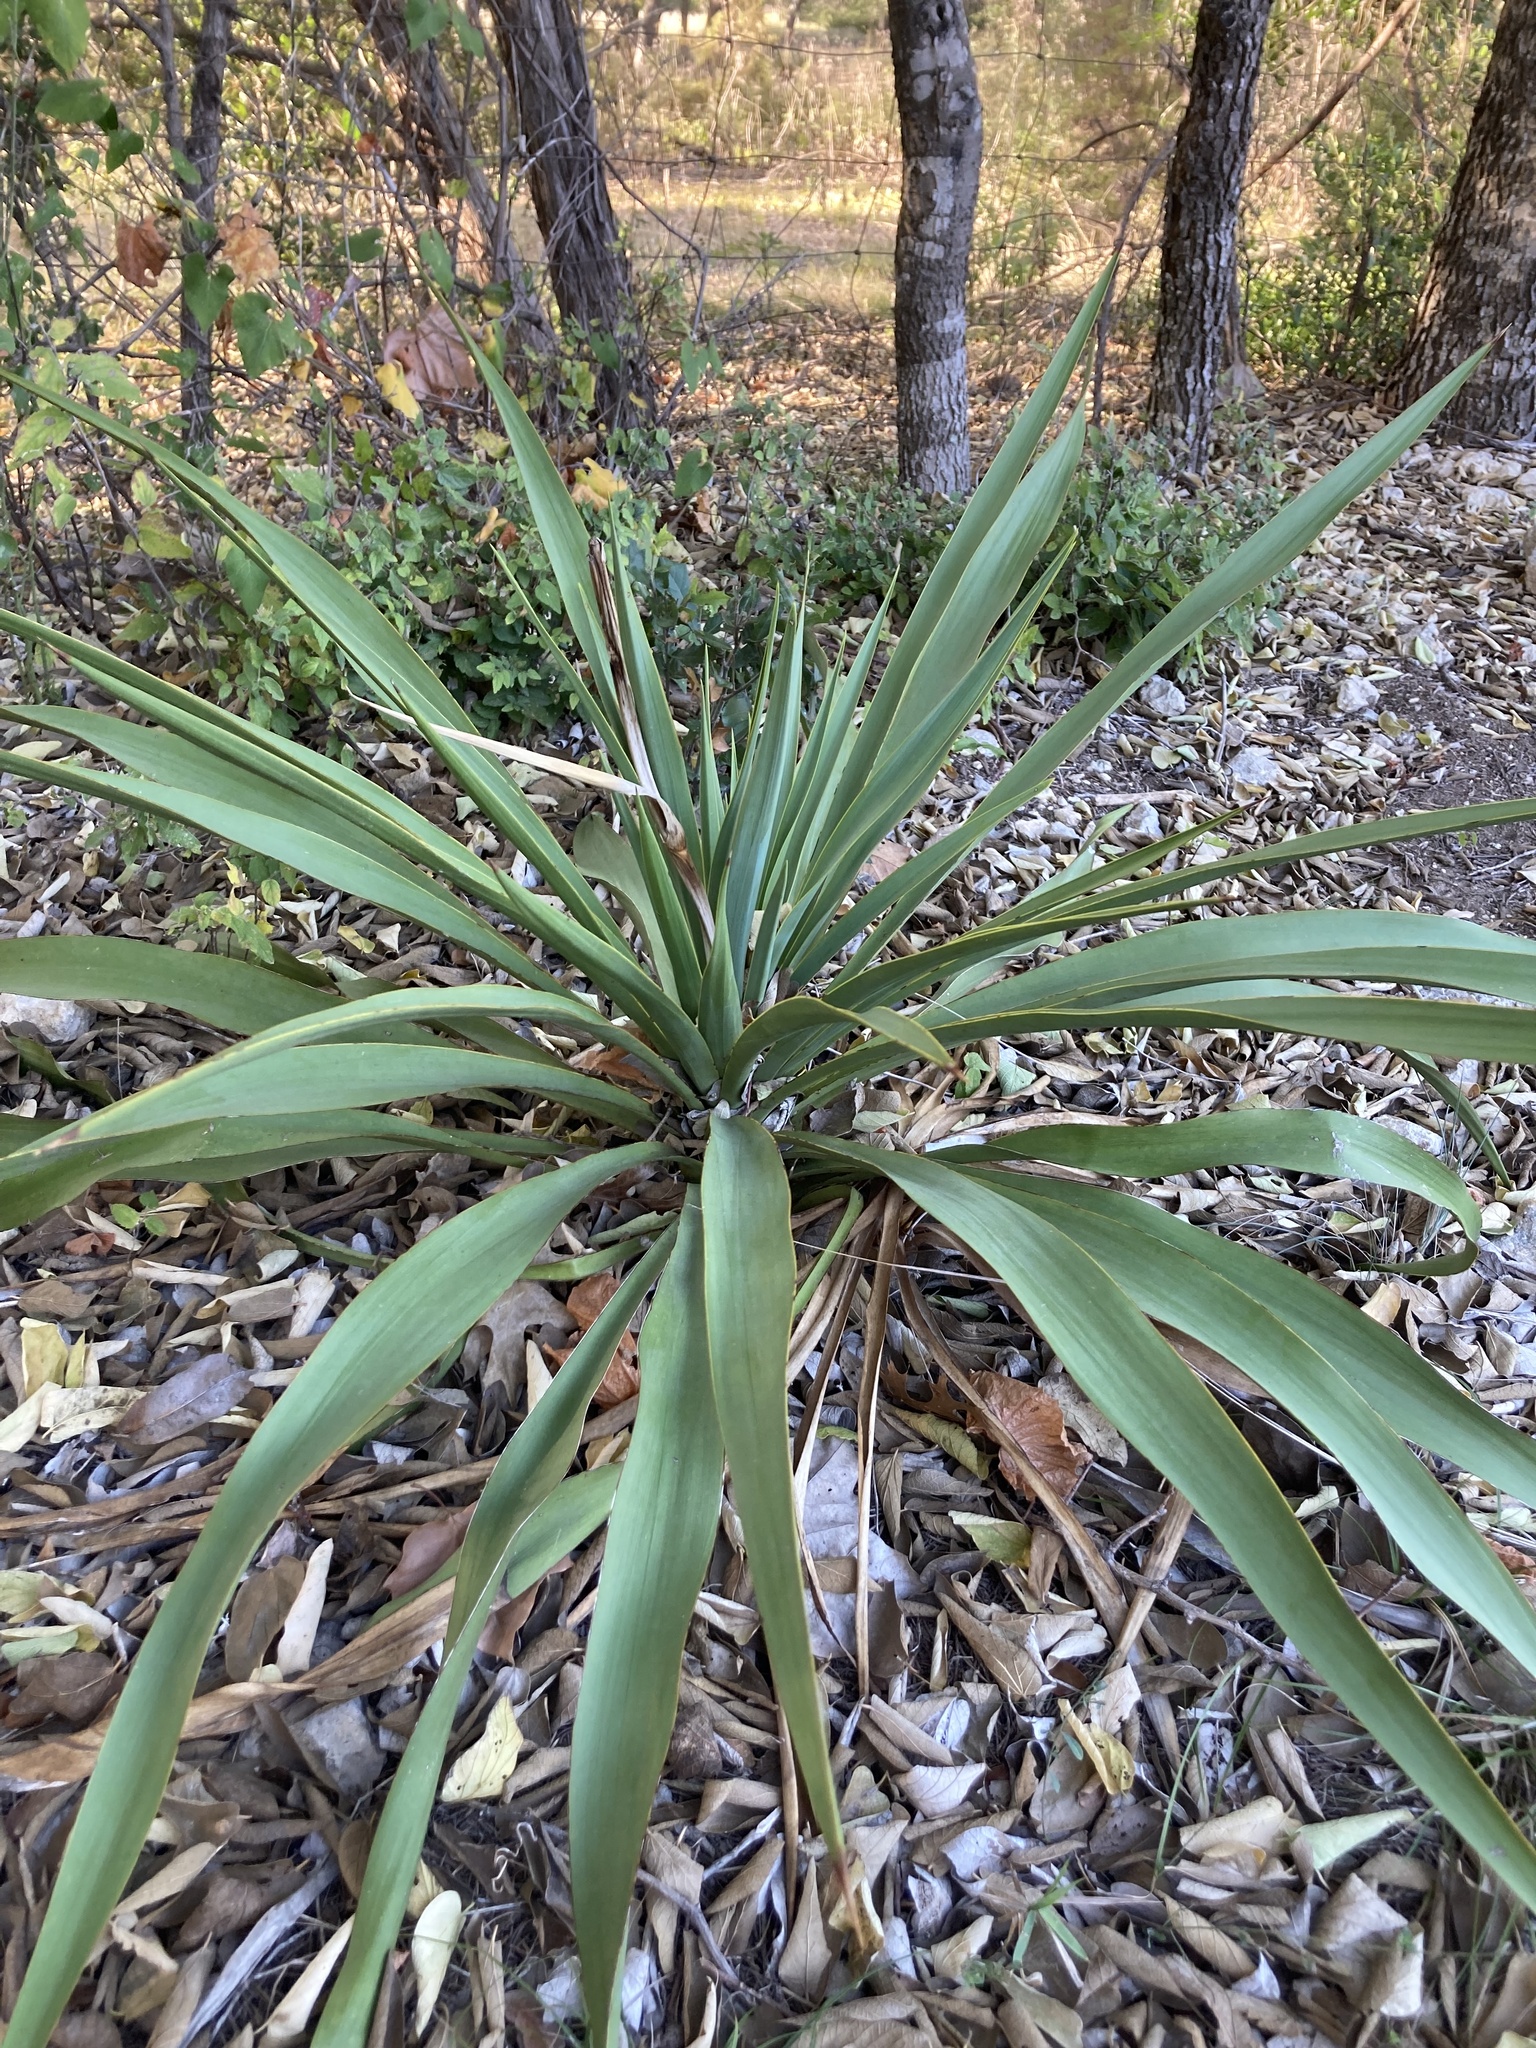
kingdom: Plantae
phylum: Tracheophyta
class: Liliopsida
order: Asparagales
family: Asparagaceae
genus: Yucca
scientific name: Yucca rupicola
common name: Twisted-leaf spanish-dagger
